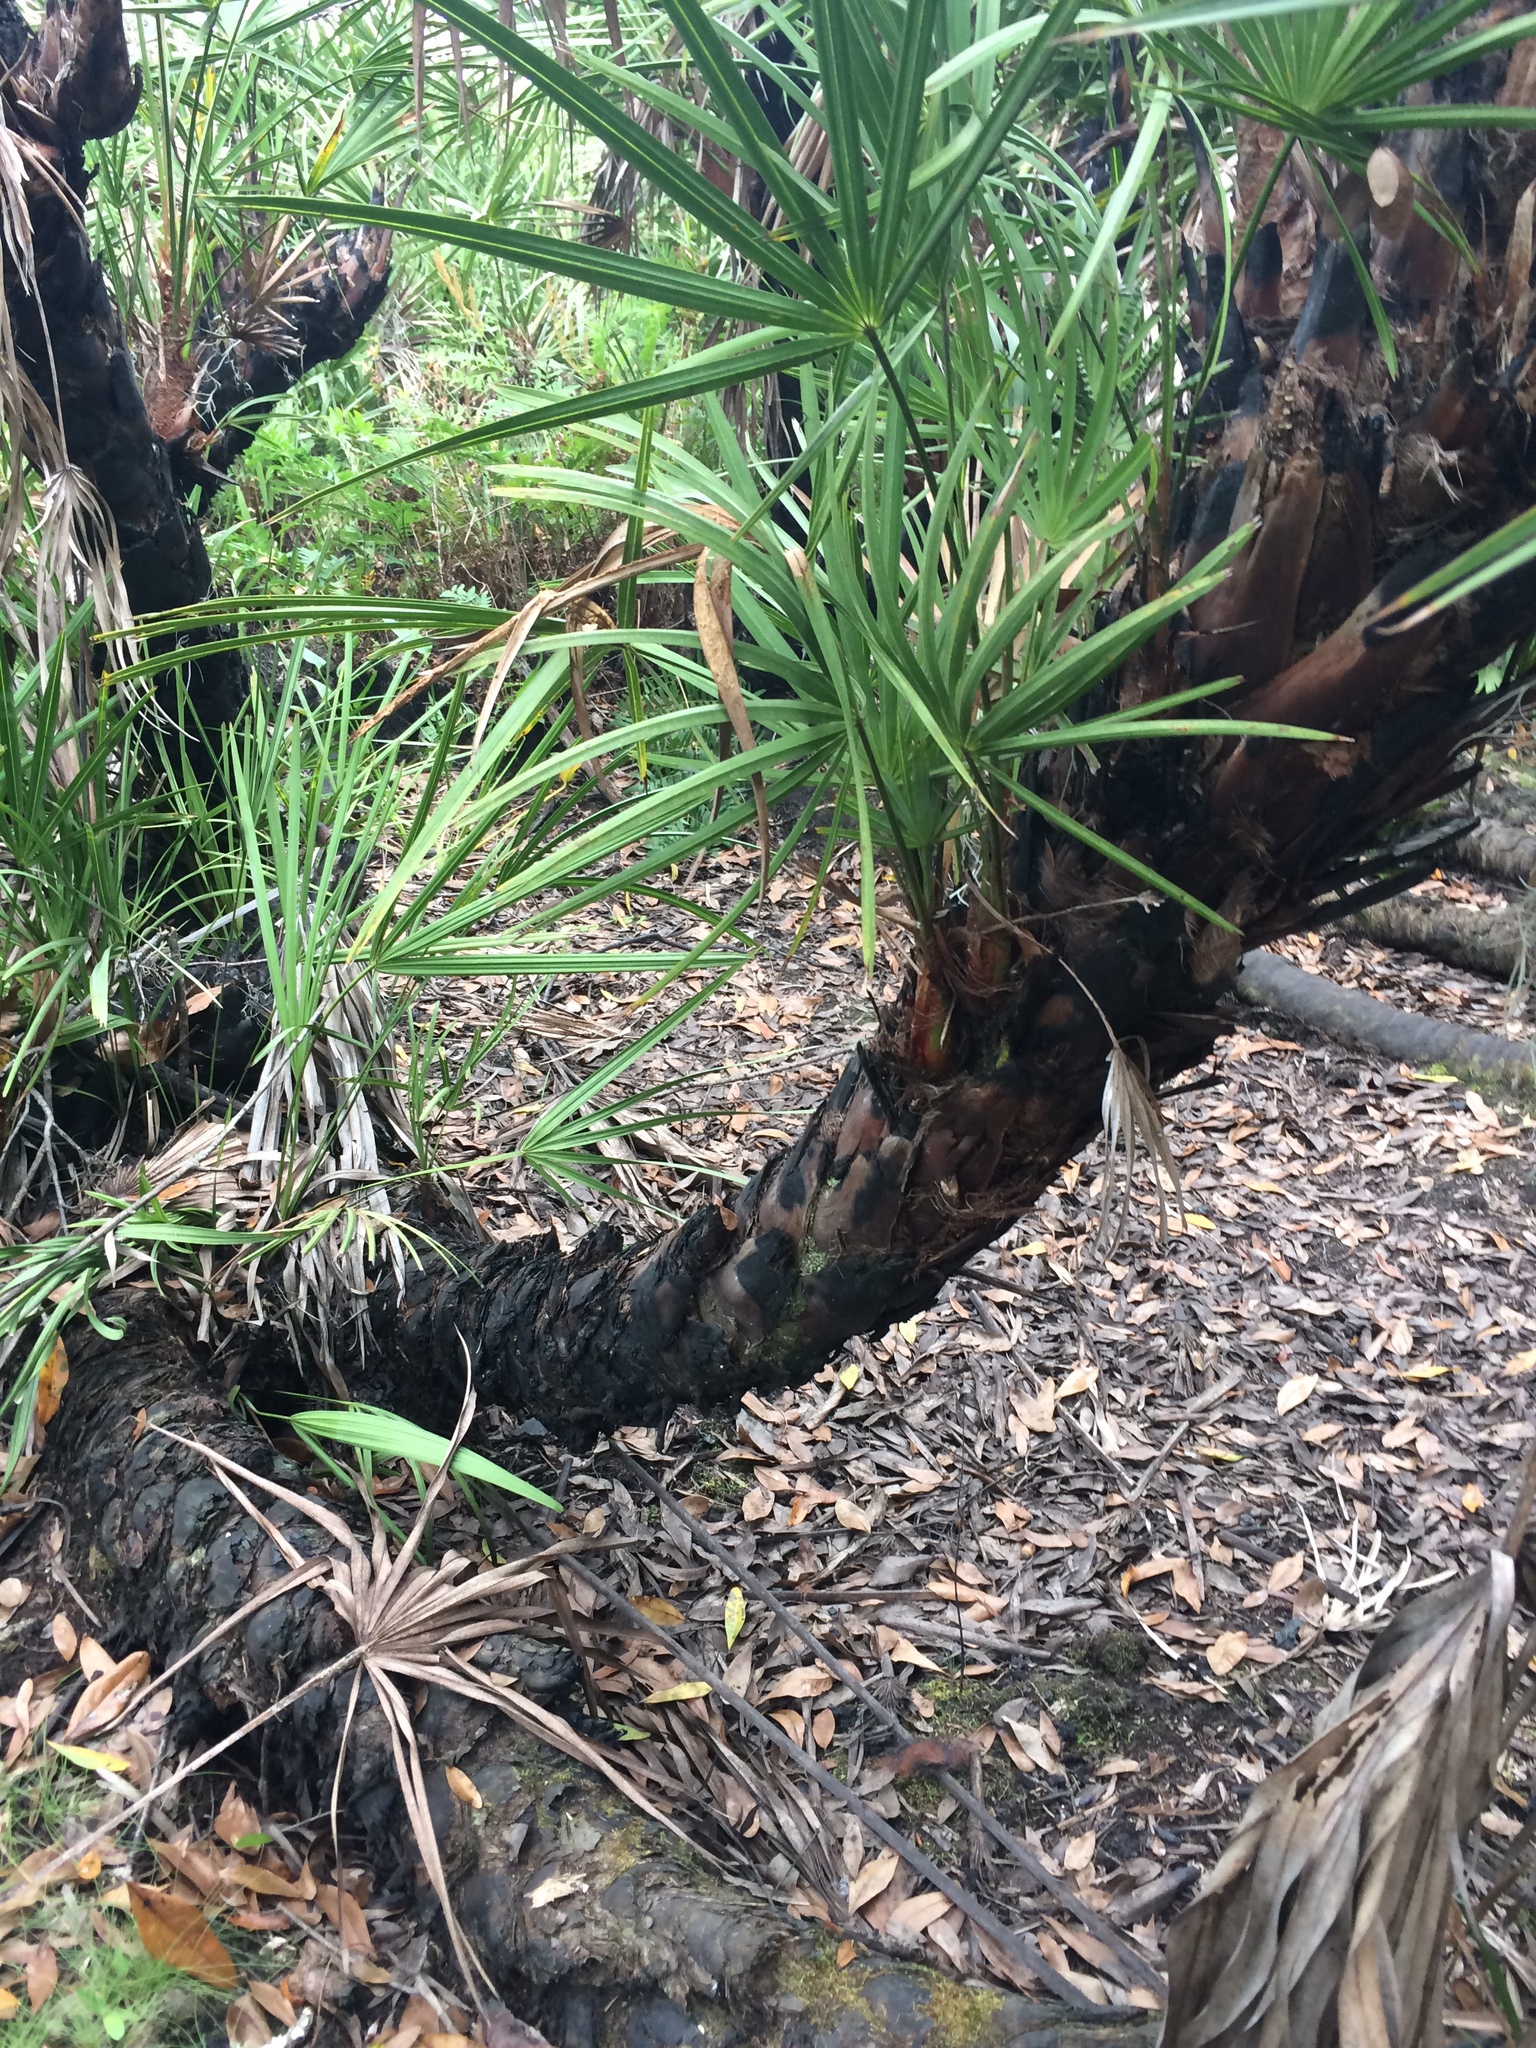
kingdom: Plantae
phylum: Tracheophyta
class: Liliopsida
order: Arecales
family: Arecaceae
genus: Serenoa
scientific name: Serenoa repens
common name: Saw-palmetto
